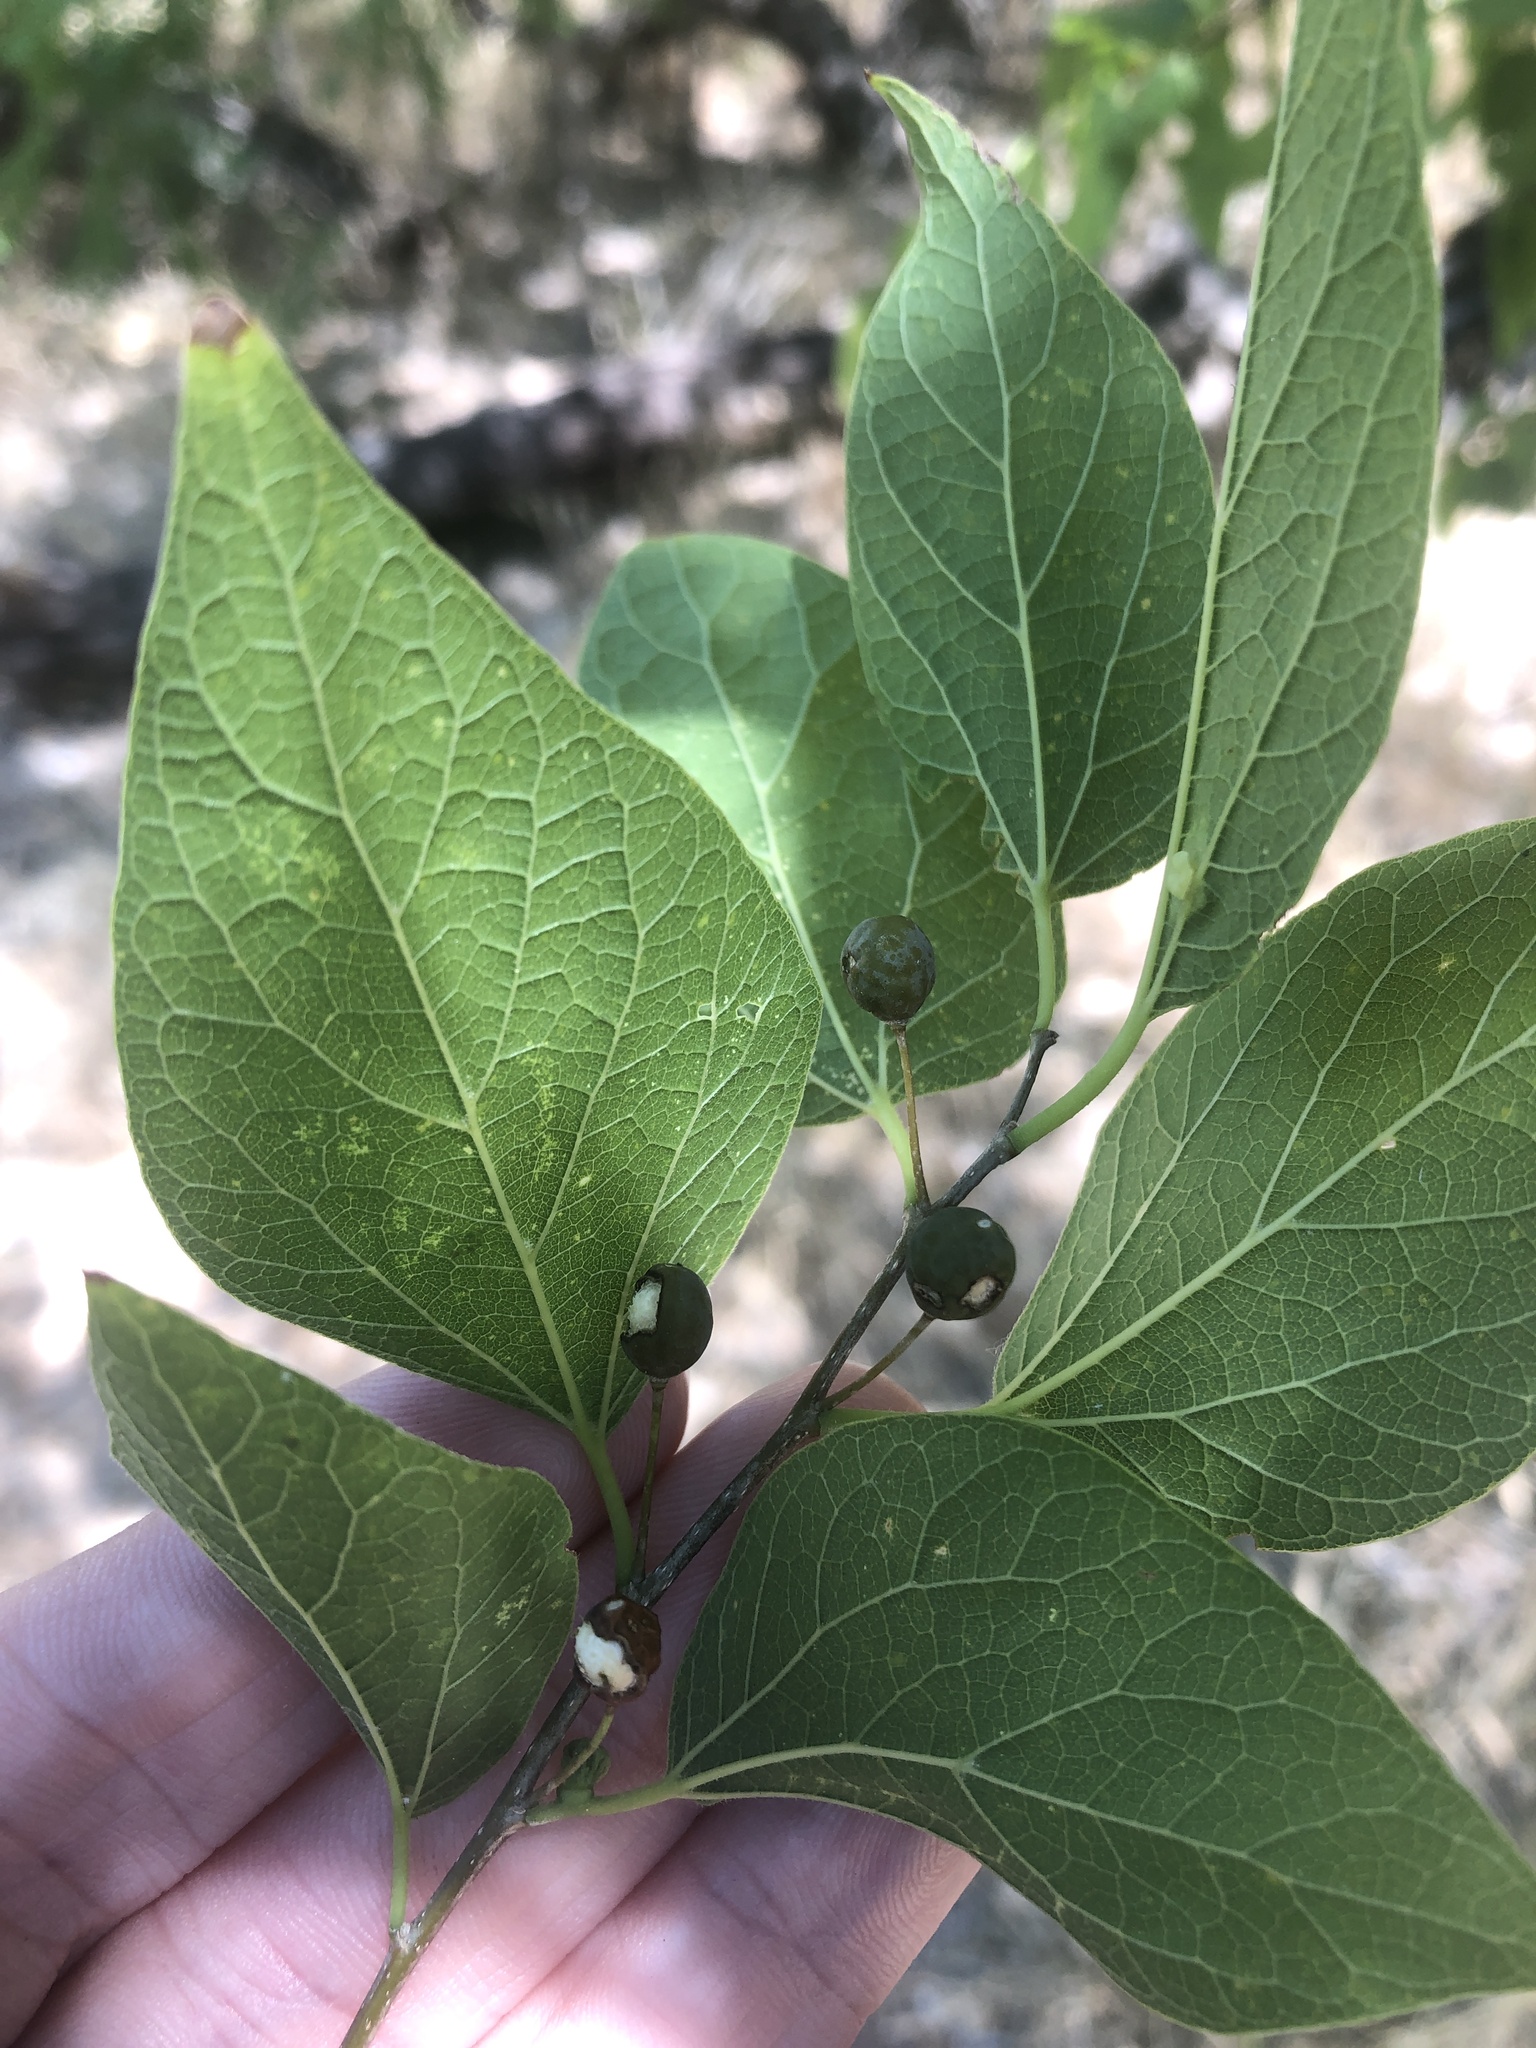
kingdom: Plantae
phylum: Tracheophyta
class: Magnoliopsida
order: Rosales
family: Cannabaceae
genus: Celtis
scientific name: Celtis laevigata
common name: Sugarberry
